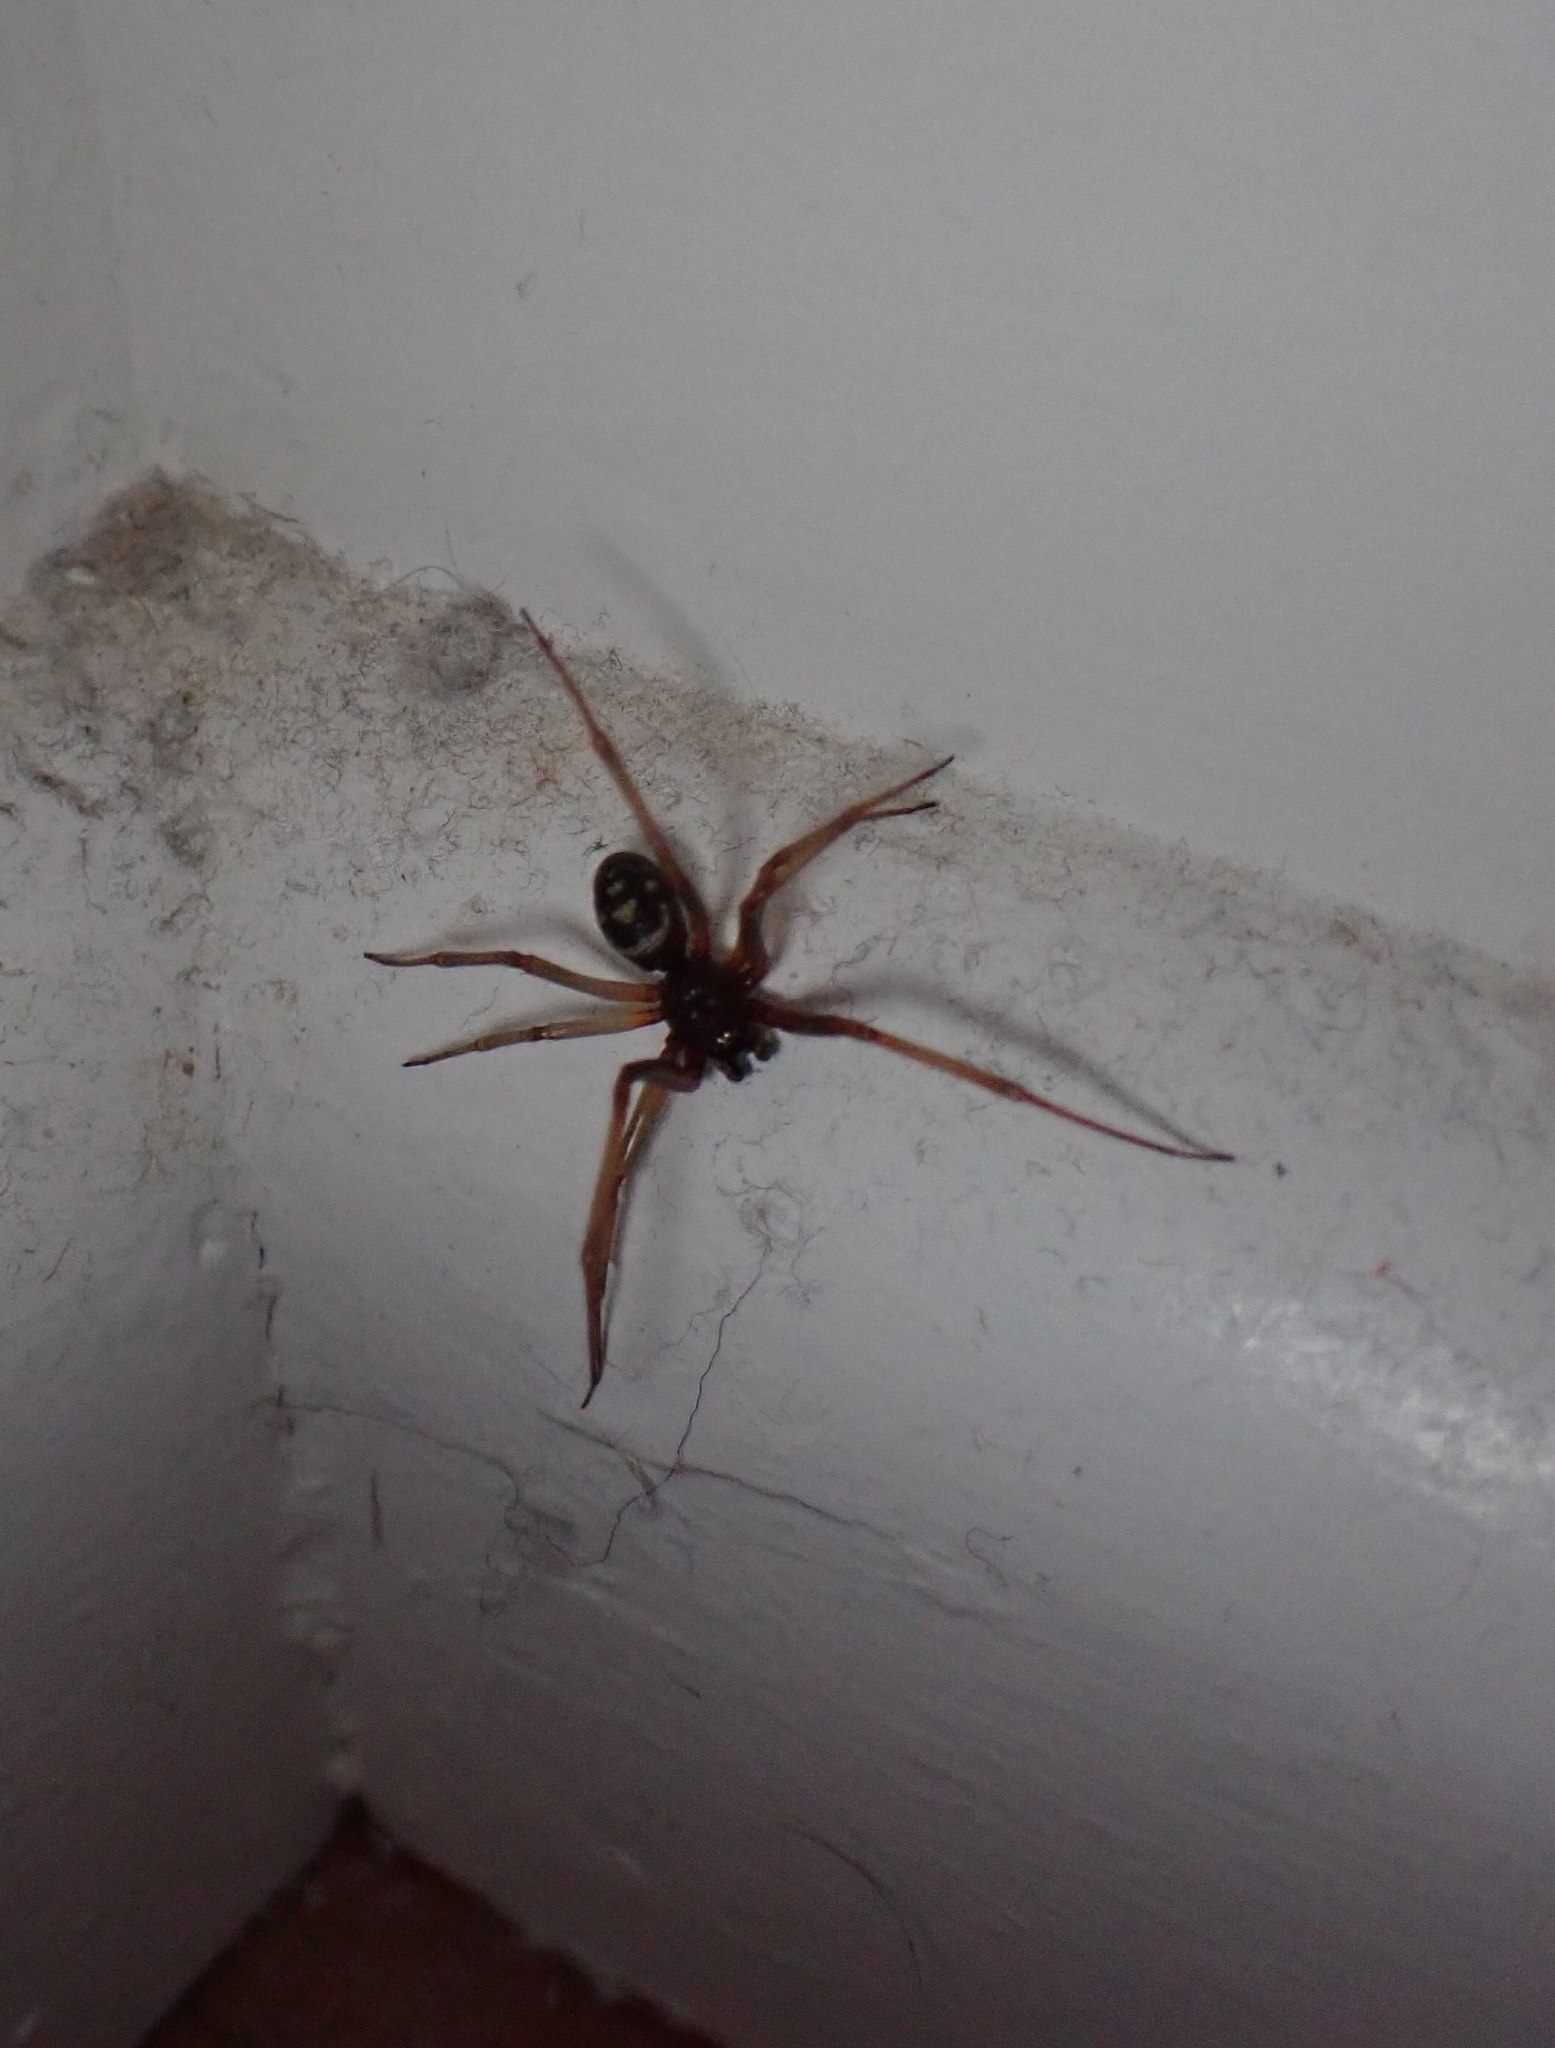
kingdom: Animalia
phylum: Arthropoda
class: Arachnida
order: Araneae
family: Theridiidae
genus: Steatoda
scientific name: Steatoda grossa
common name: False black widow
